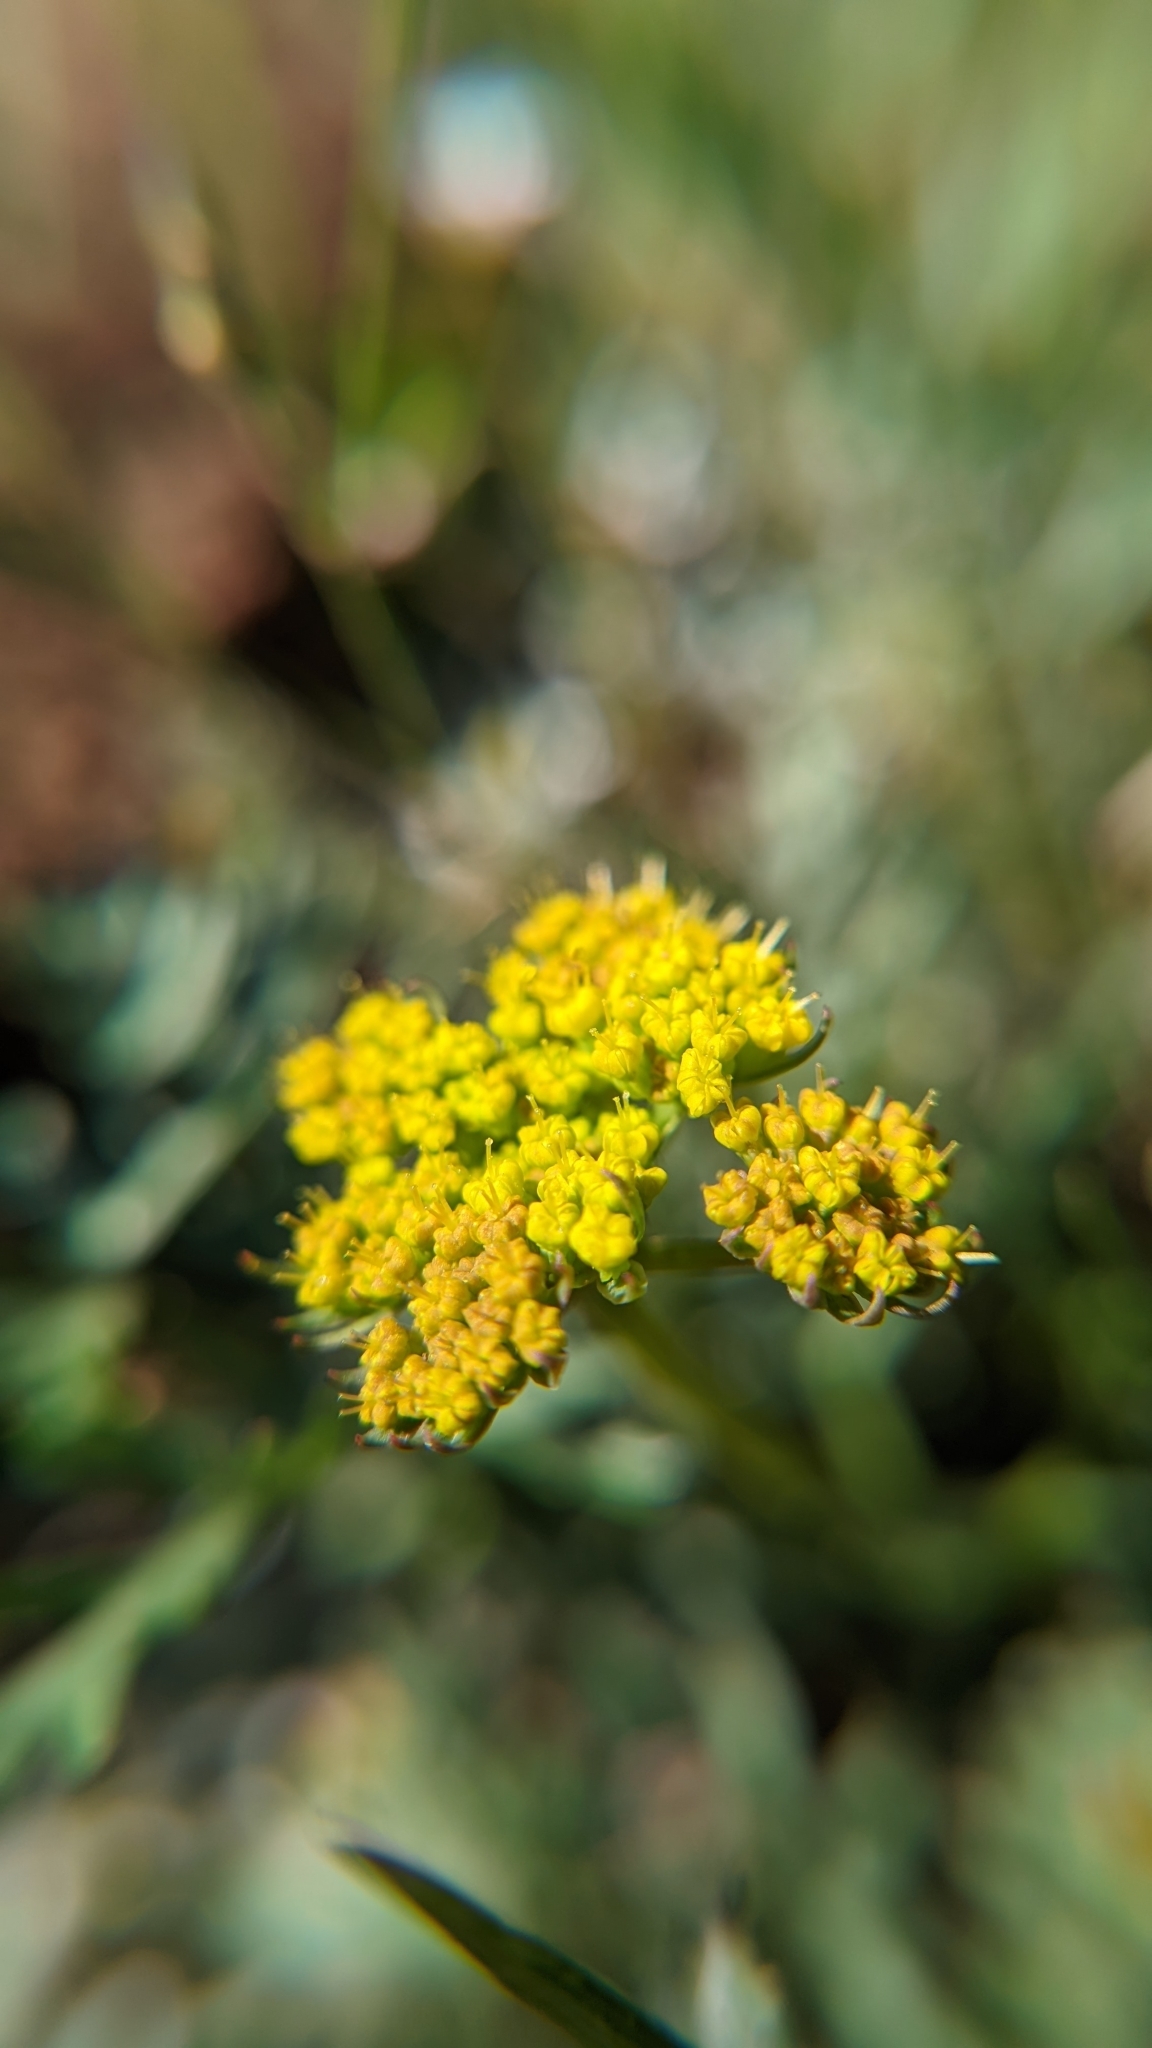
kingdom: Plantae
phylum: Tracheophyta
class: Magnoliopsida
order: Apiales
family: Apiaceae
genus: Cymopterus
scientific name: Cymopterus lemmonii
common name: Lemmon's spring-parsley
